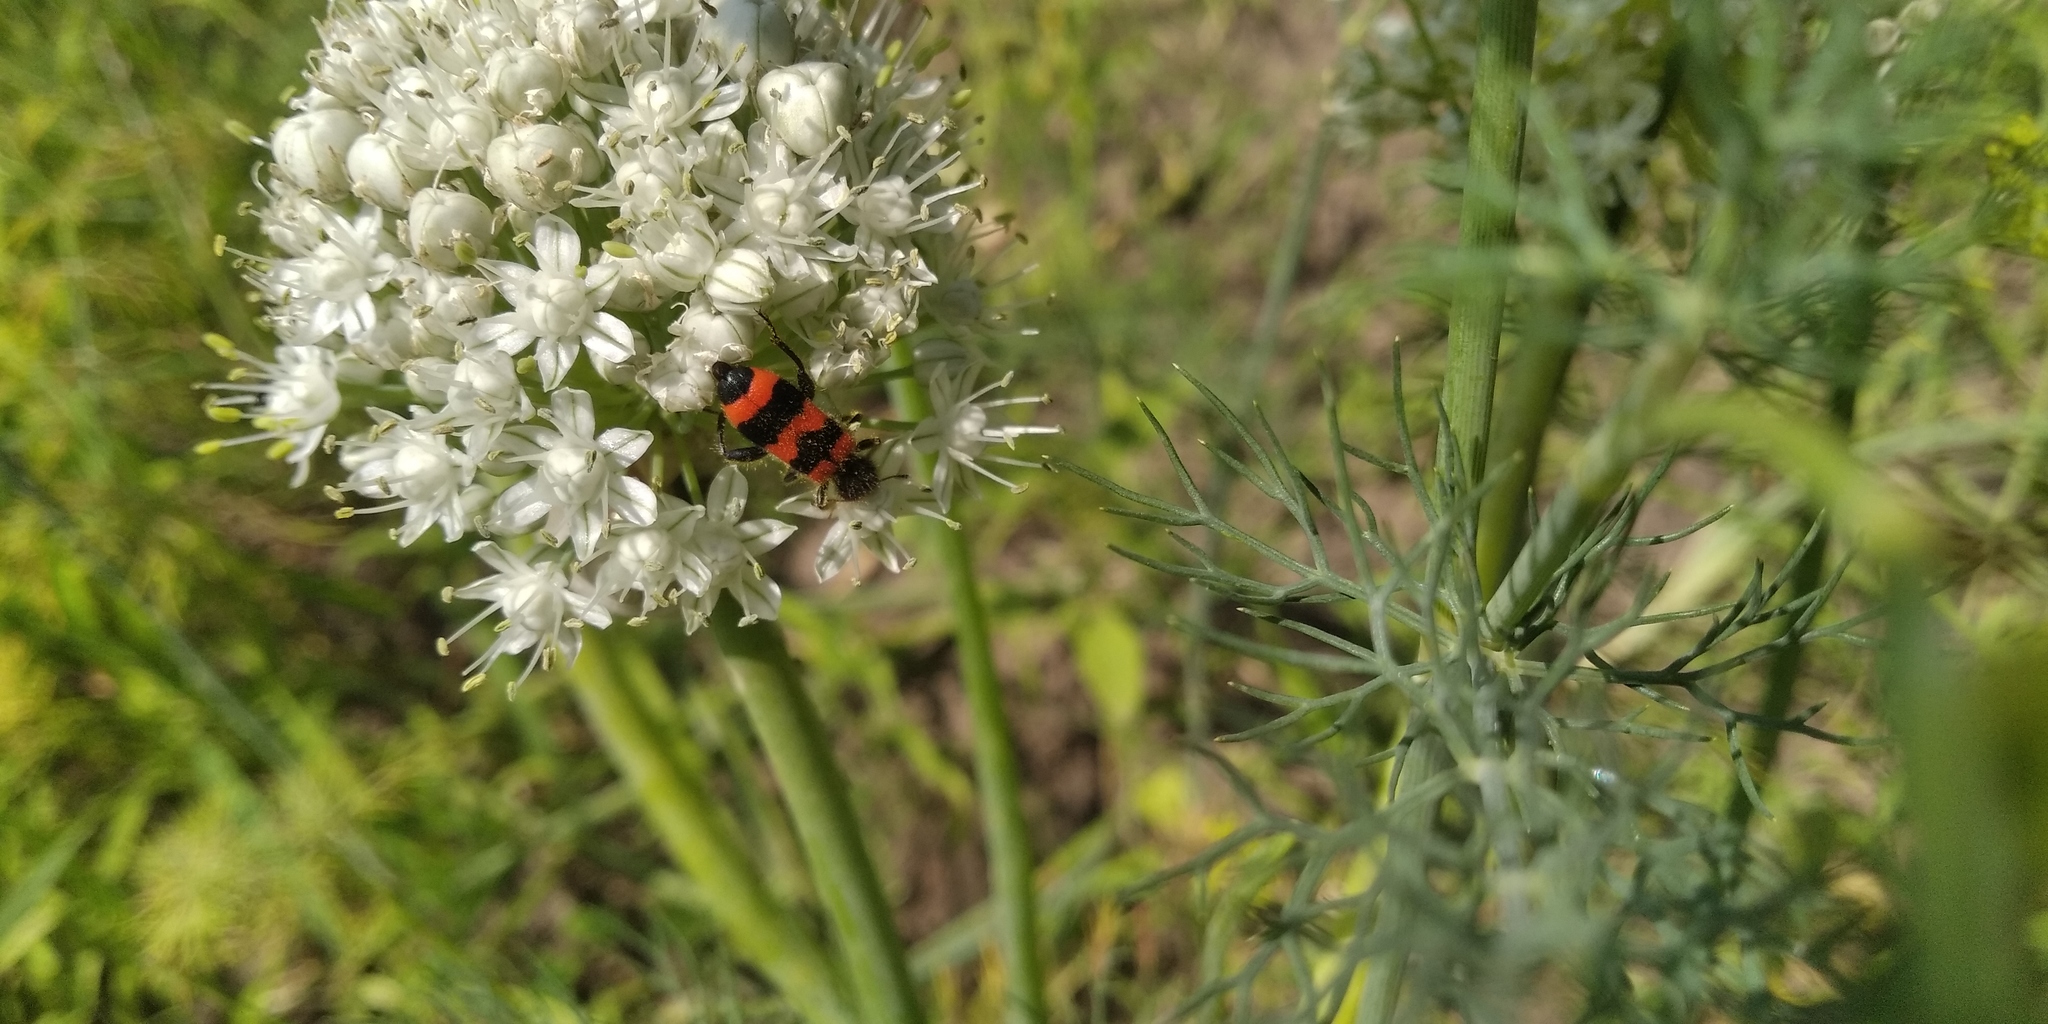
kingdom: Animalia
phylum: Arthropoda
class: Insecta
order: Coleoptera
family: Cleridae
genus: Trichodes
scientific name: Trichodes apiarius
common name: Bee-eating beetle
